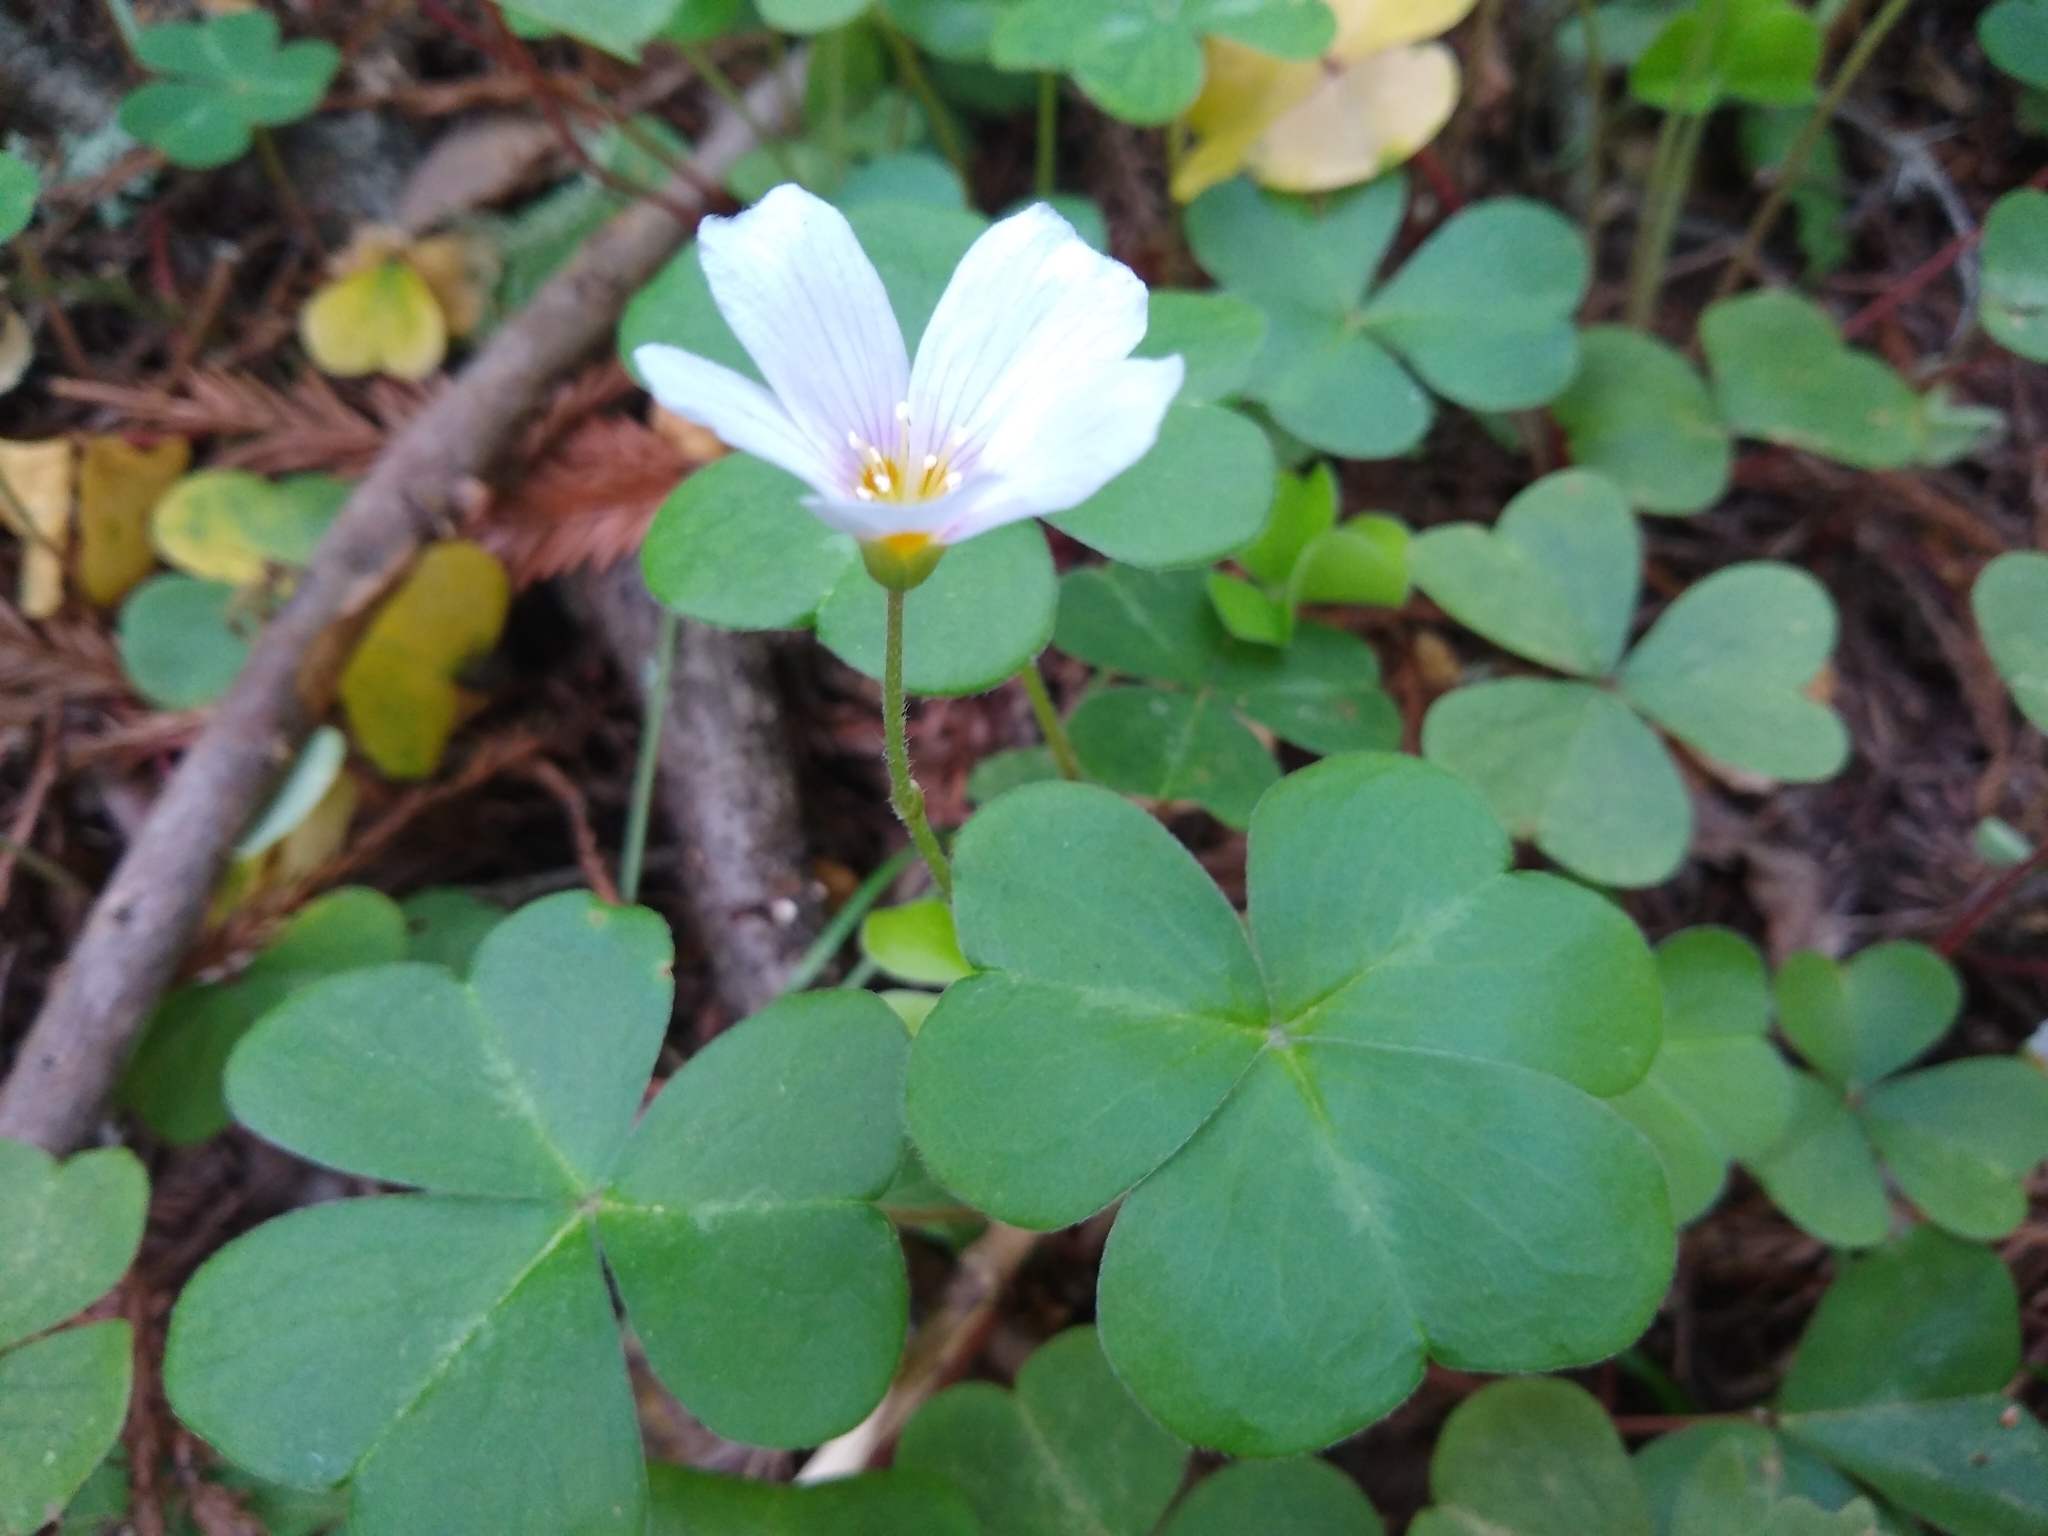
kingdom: Plantae
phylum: Tracheophyta
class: Magnoliopsida
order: Oxalidales
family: Oxalidaceae
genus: Oxalis
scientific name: Oxalis oregana
